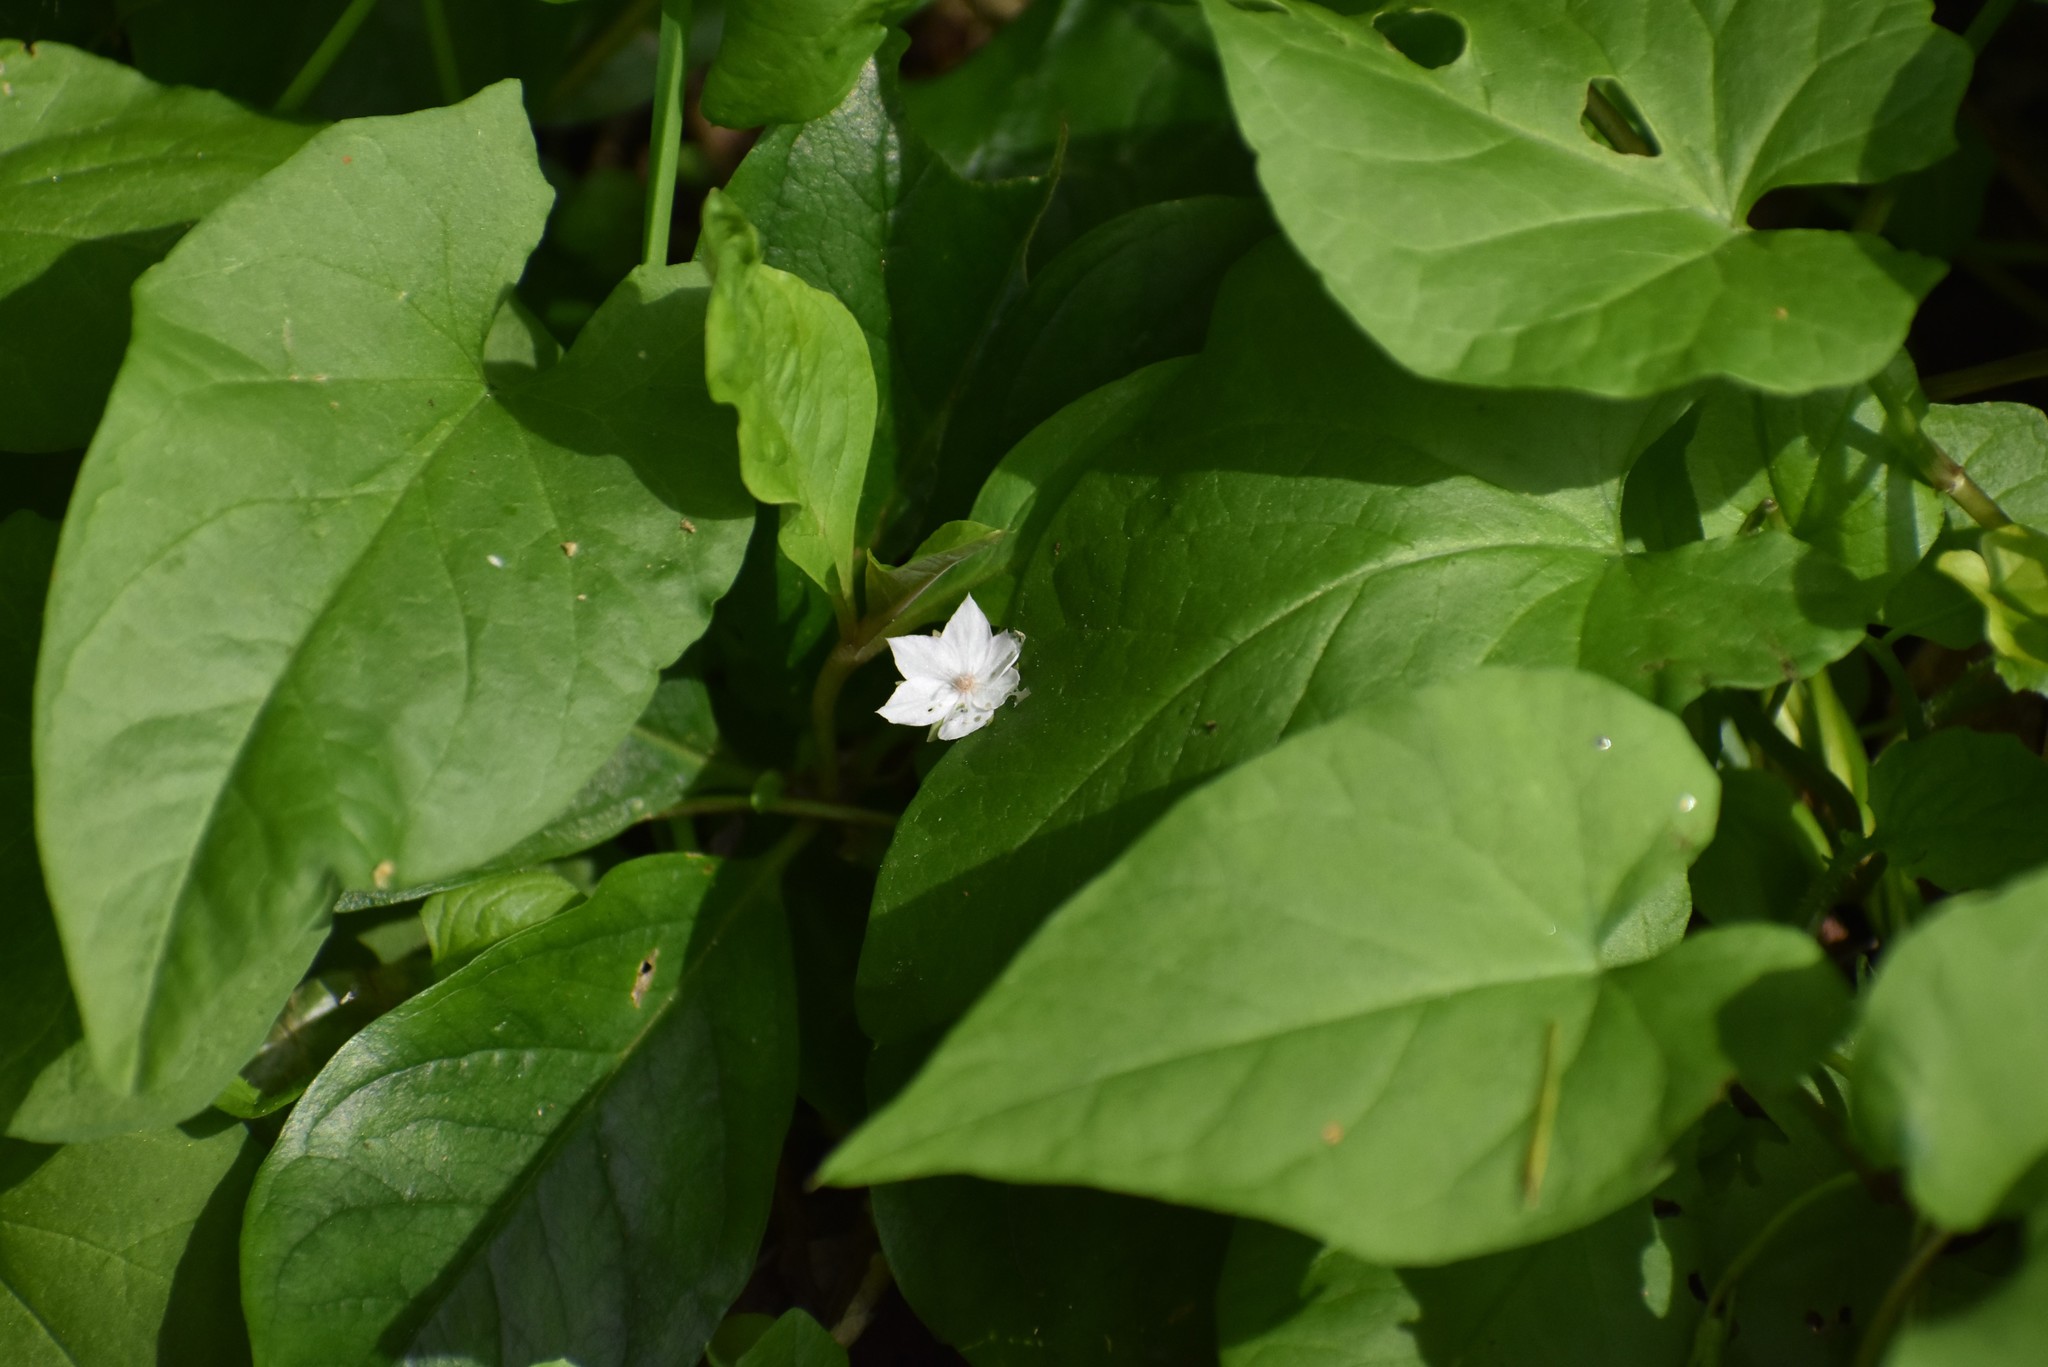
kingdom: Plantae
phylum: Tracheophyta
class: Magnoliopsida
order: Ericales
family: Primulaceae
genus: Lysimachia
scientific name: Lysimachia latifolia
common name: Pacific starflower
